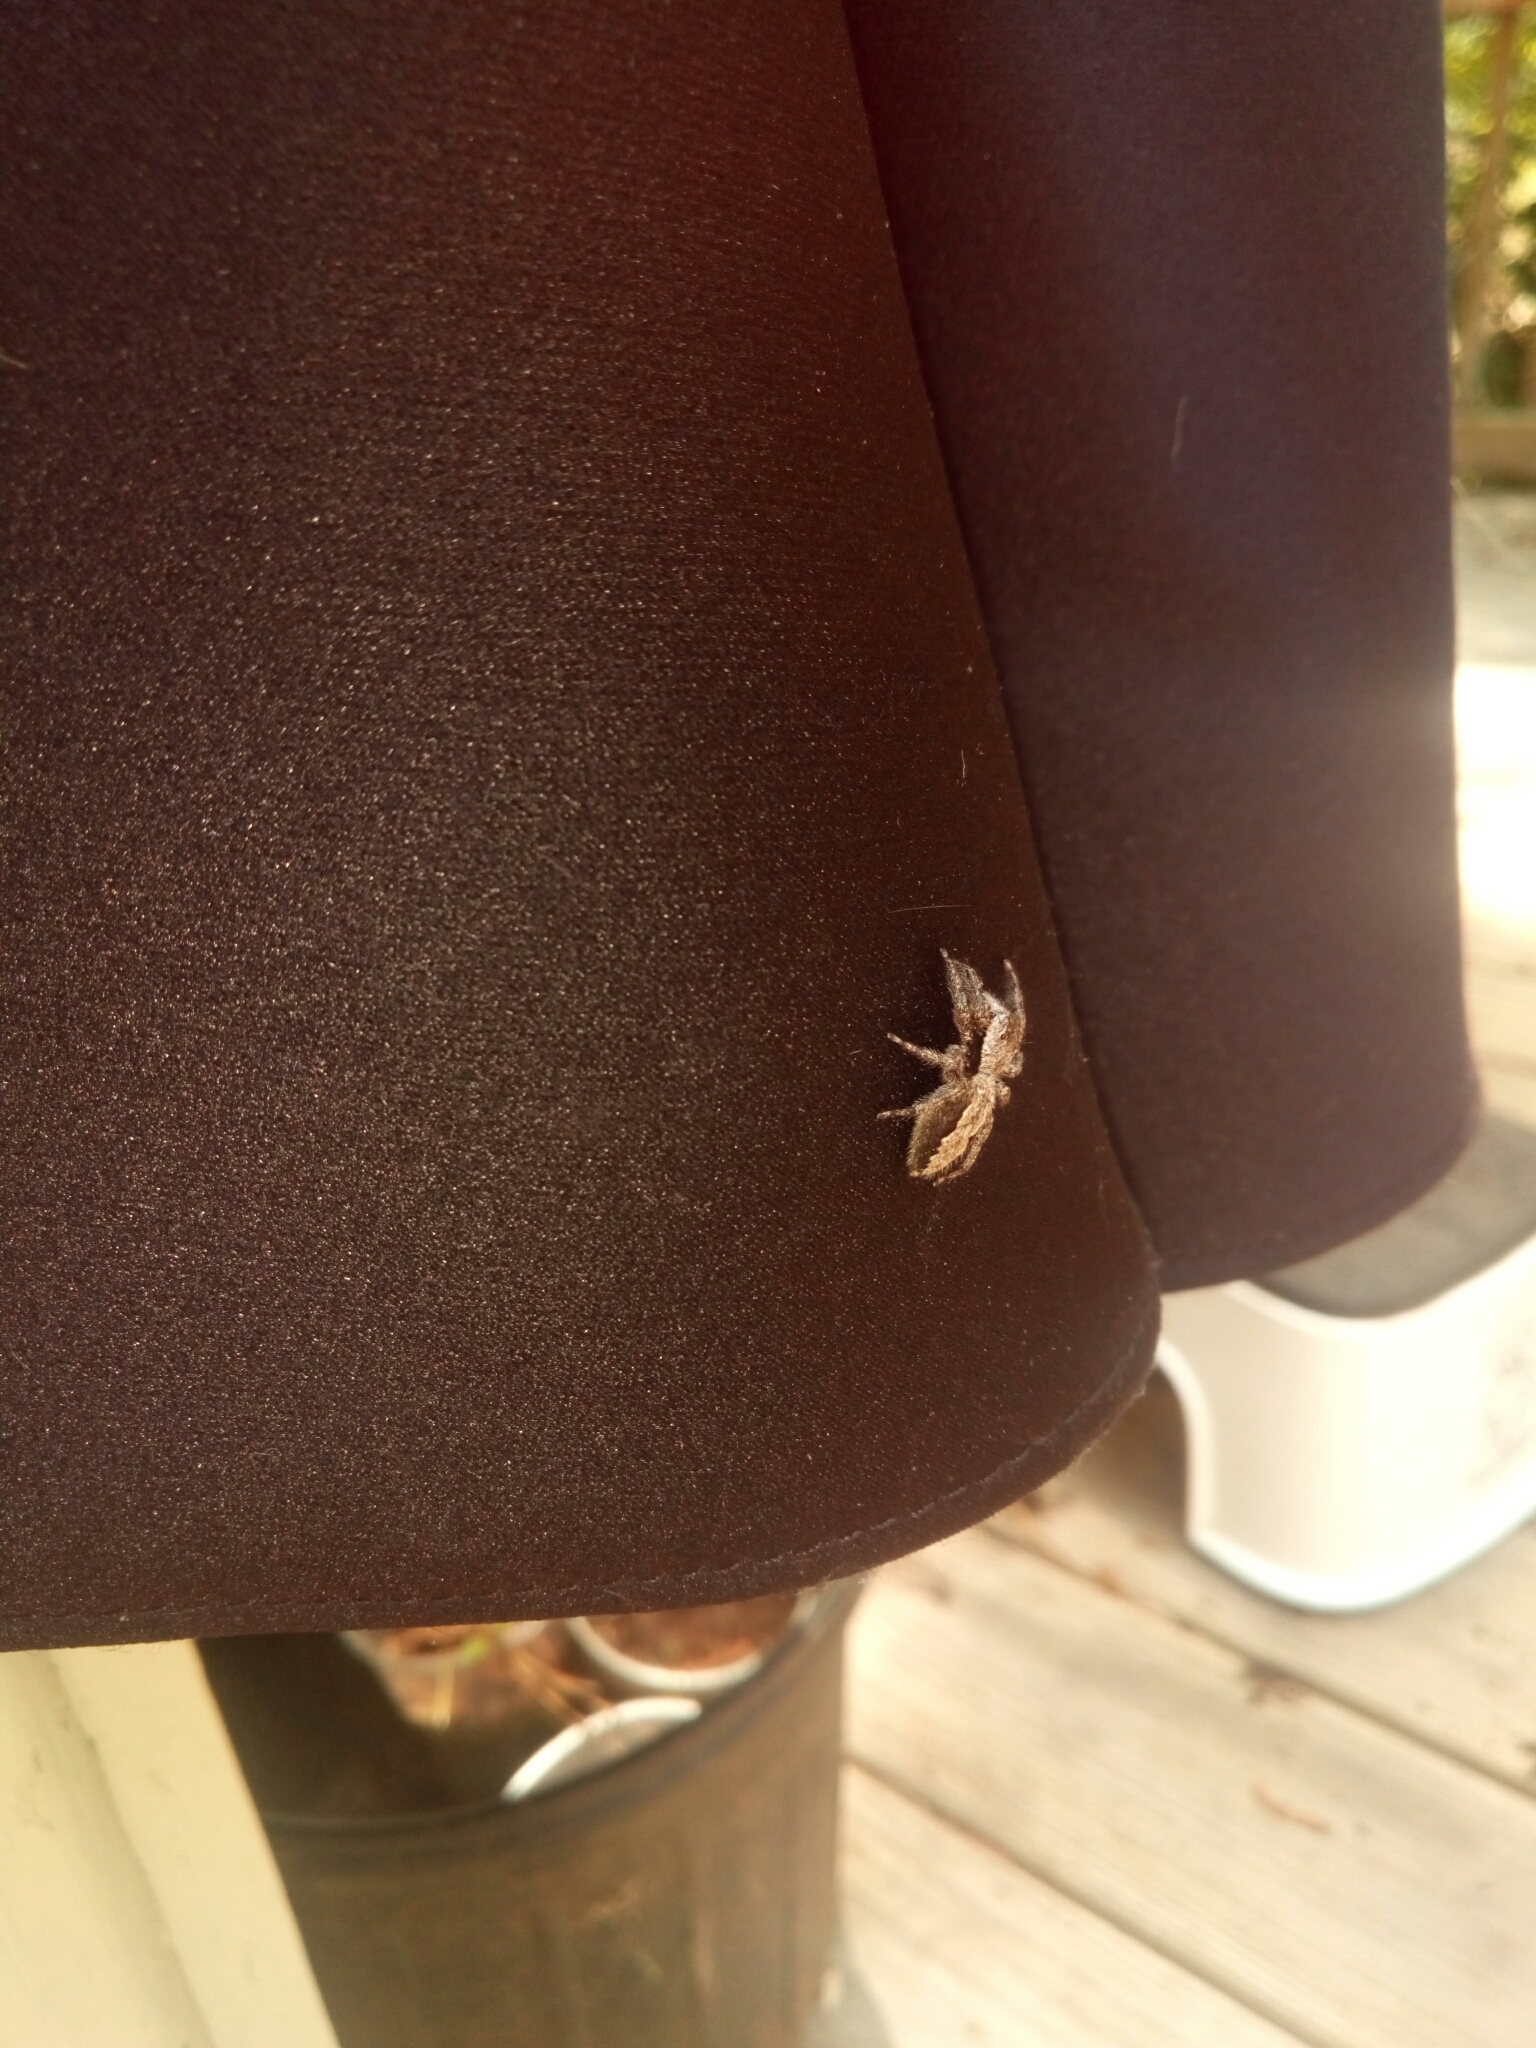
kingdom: Animalia
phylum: Arthropoda
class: Arachnida
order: Araneae
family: Salticidae
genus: Platycryptus
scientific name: Platycryptus undatus
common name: Tan jumping spider
